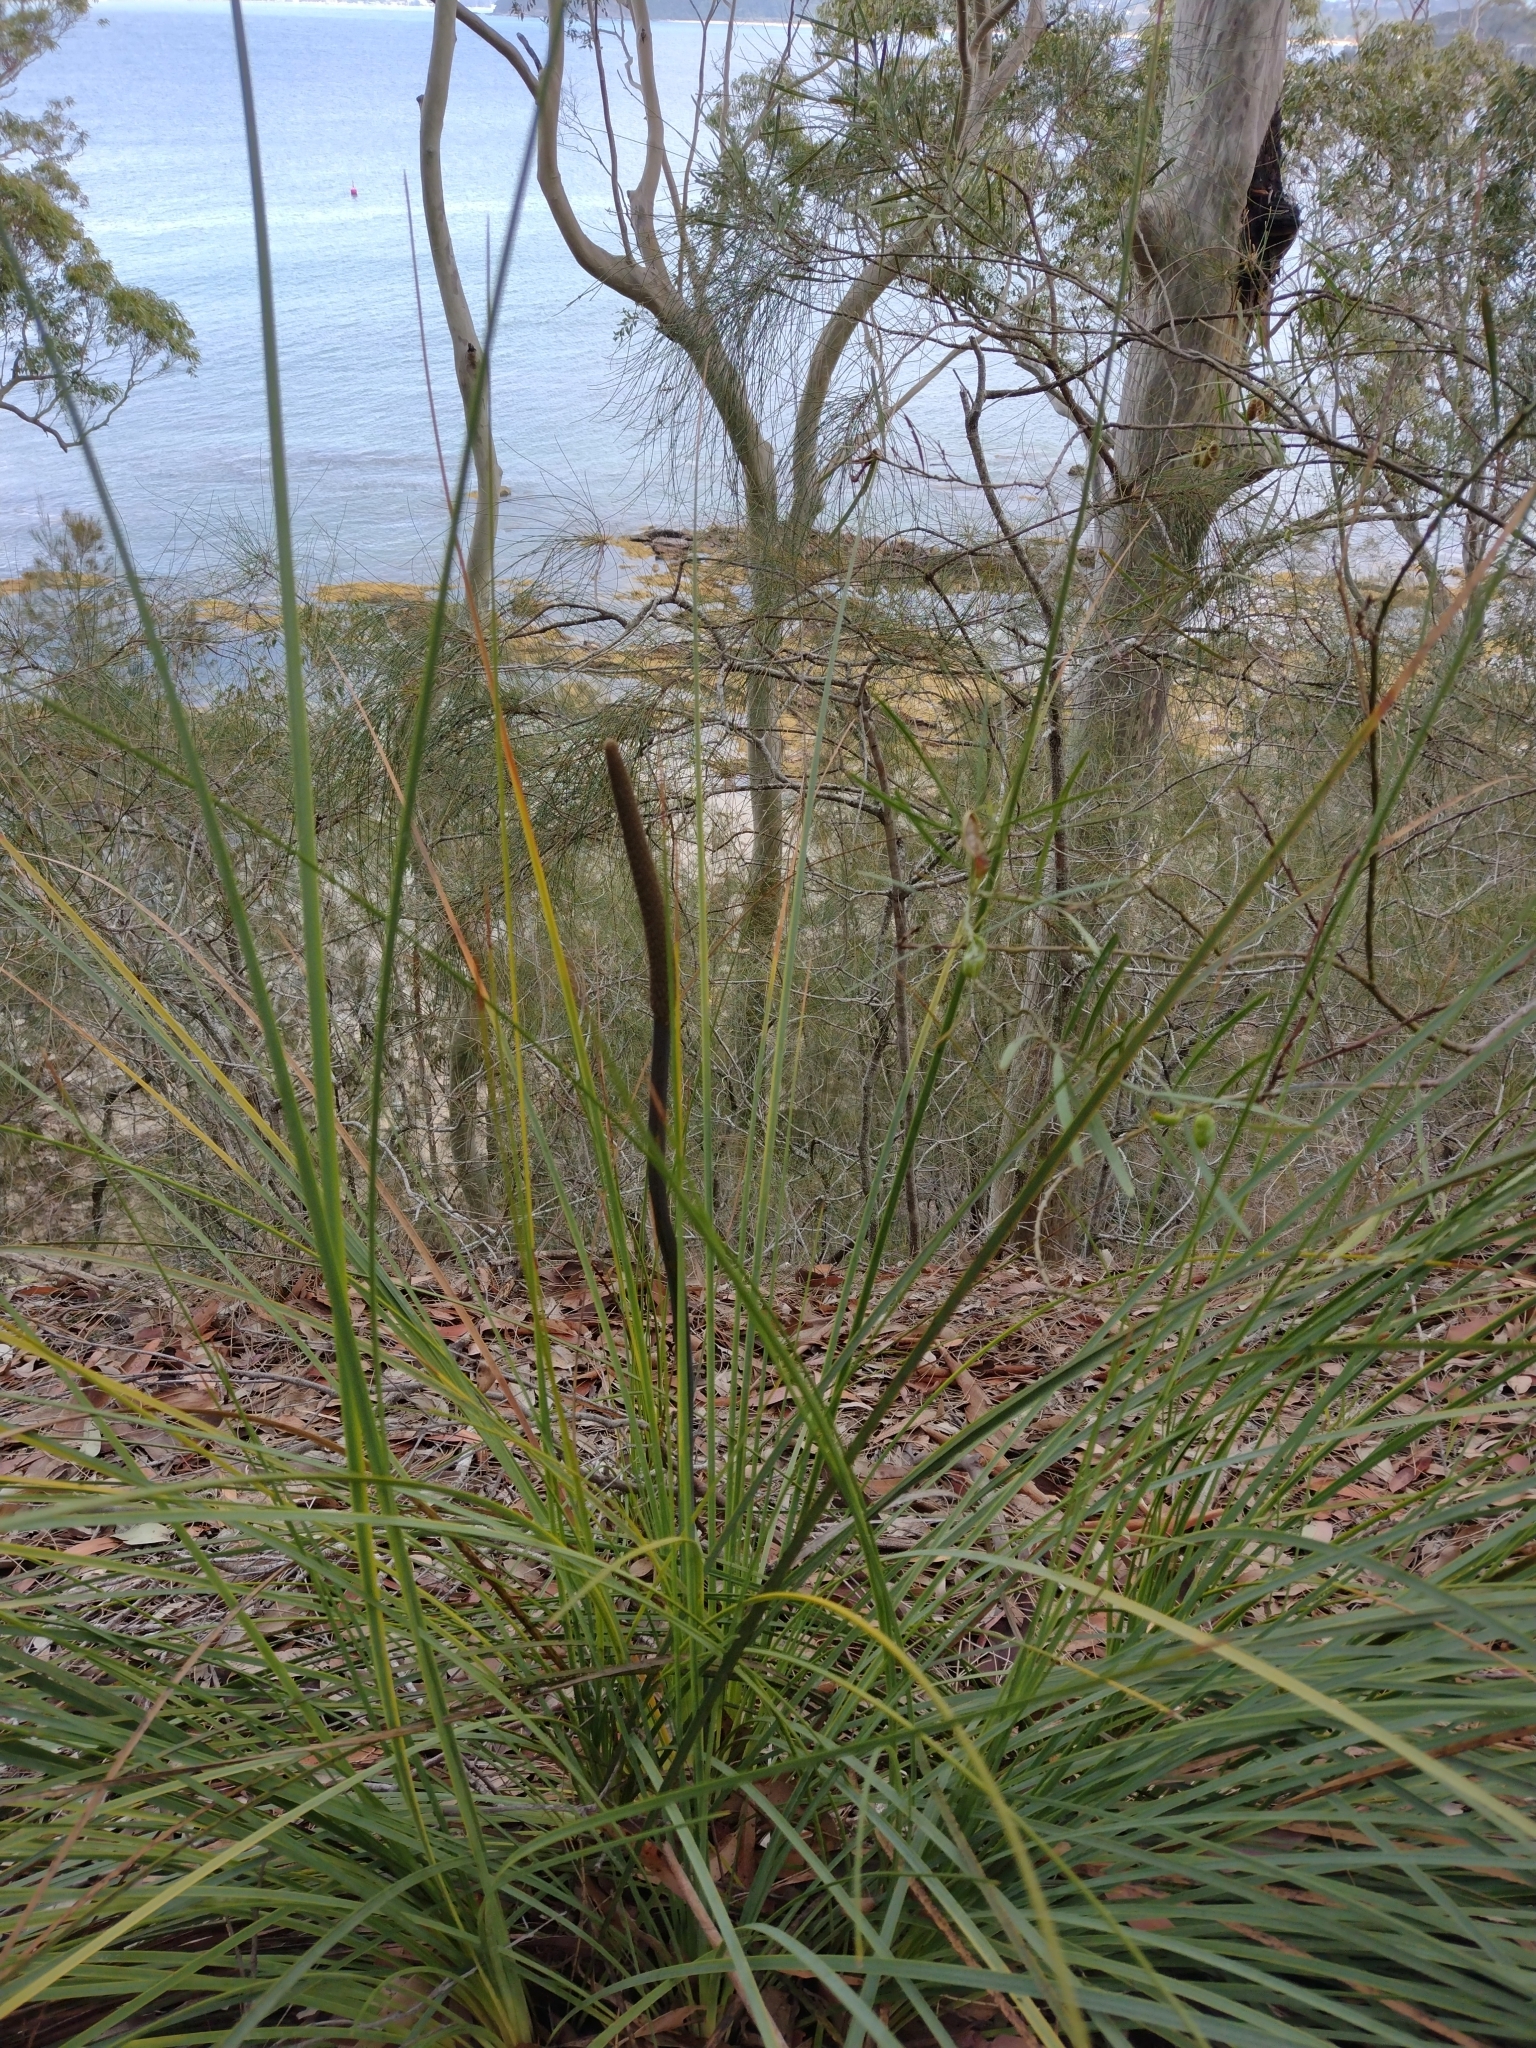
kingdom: Plantae
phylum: Tracheophyta
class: Liliopsida
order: Asparagales
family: Asphodelaceae
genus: Xanthorrhoea
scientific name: Xanthorrhoea concava
